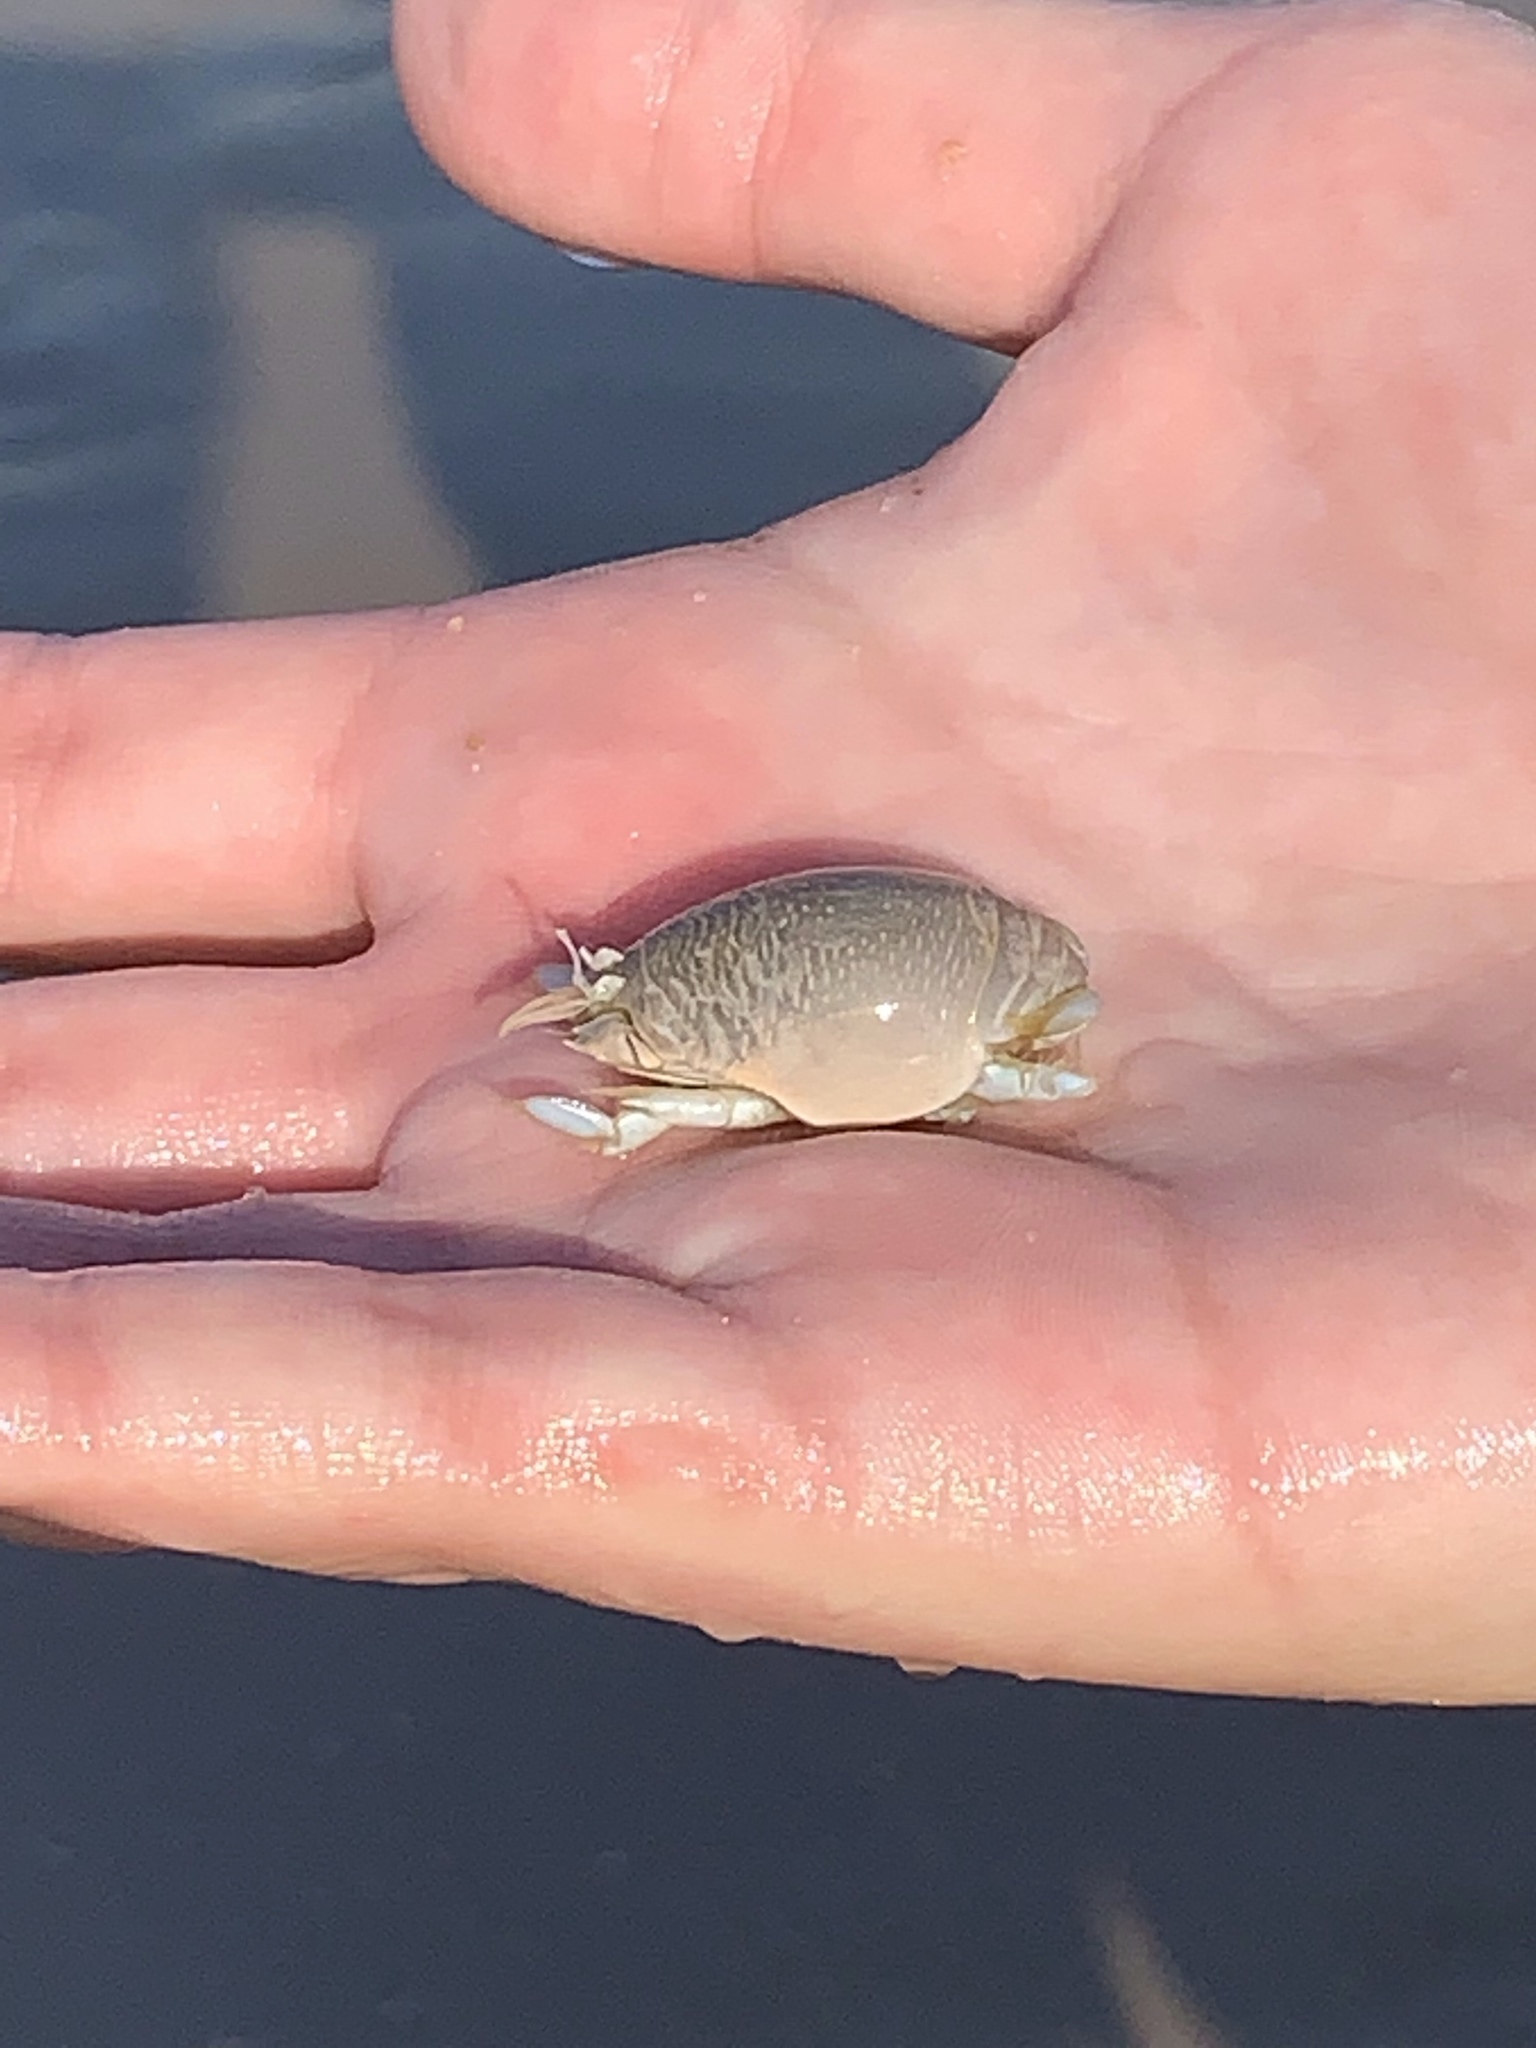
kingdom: Animalia
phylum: Arthropoda
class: Malacostraca
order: Decapoda
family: Hippidae
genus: Emerita
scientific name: Emerita talpoida
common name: Atlantic sand crab
